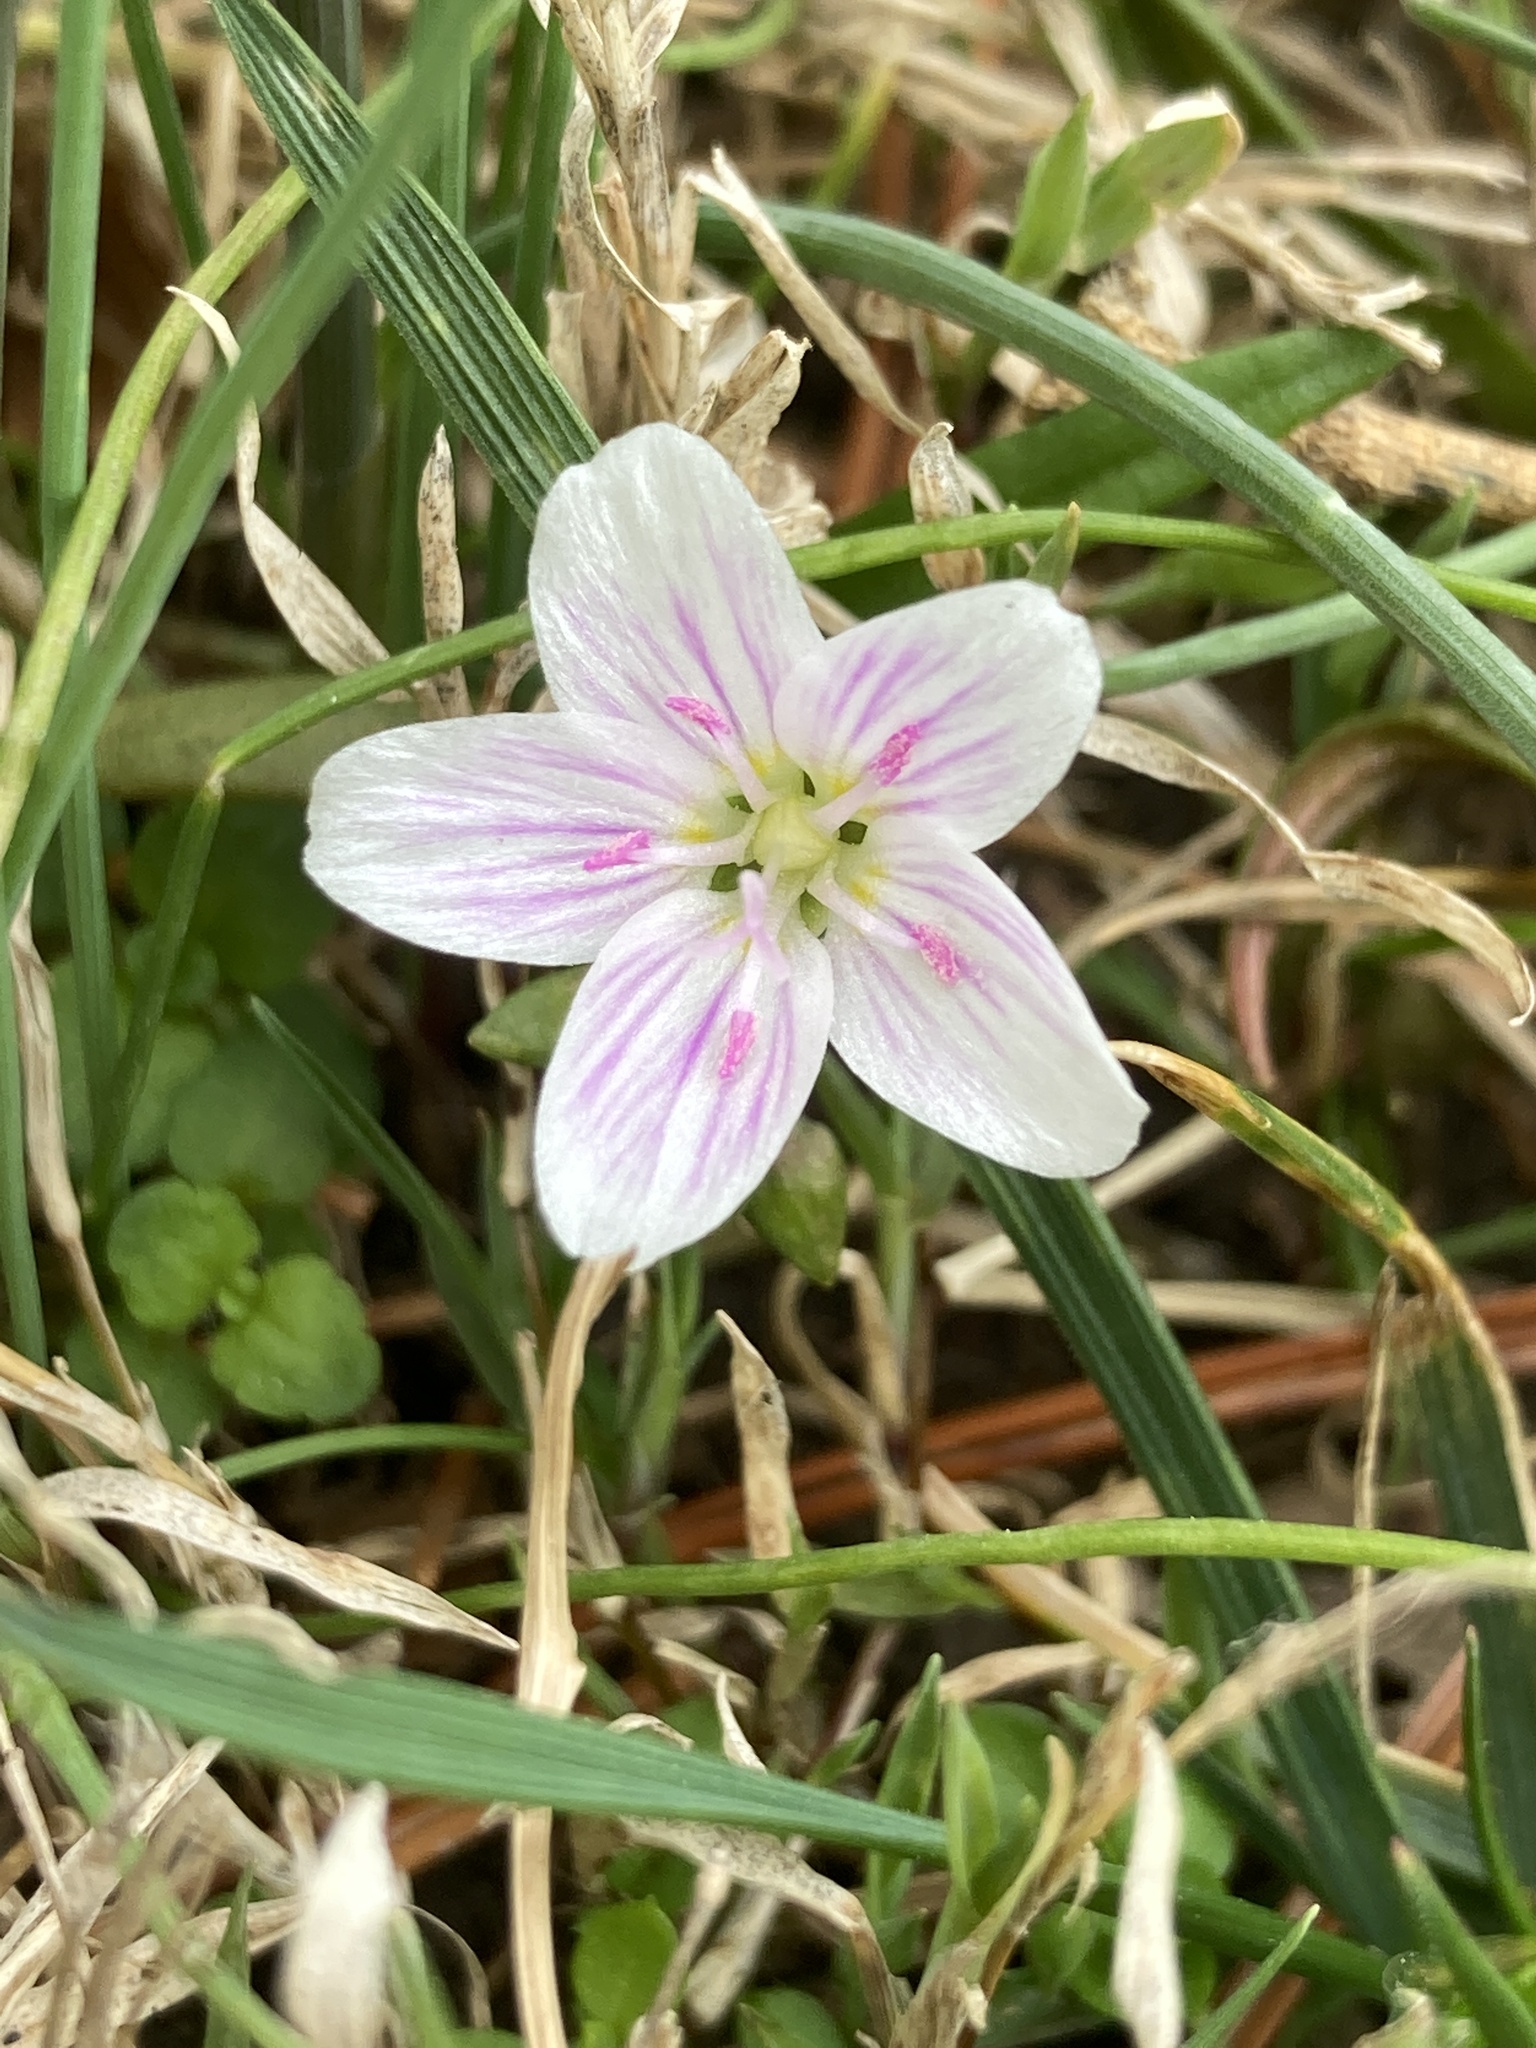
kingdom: Plantae
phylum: Tracheophyta
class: Magnoliopsida
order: Caryophyllales
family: Montiaceae
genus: Claytonia
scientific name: Claytonia virginica
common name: Virginia springbeauty
